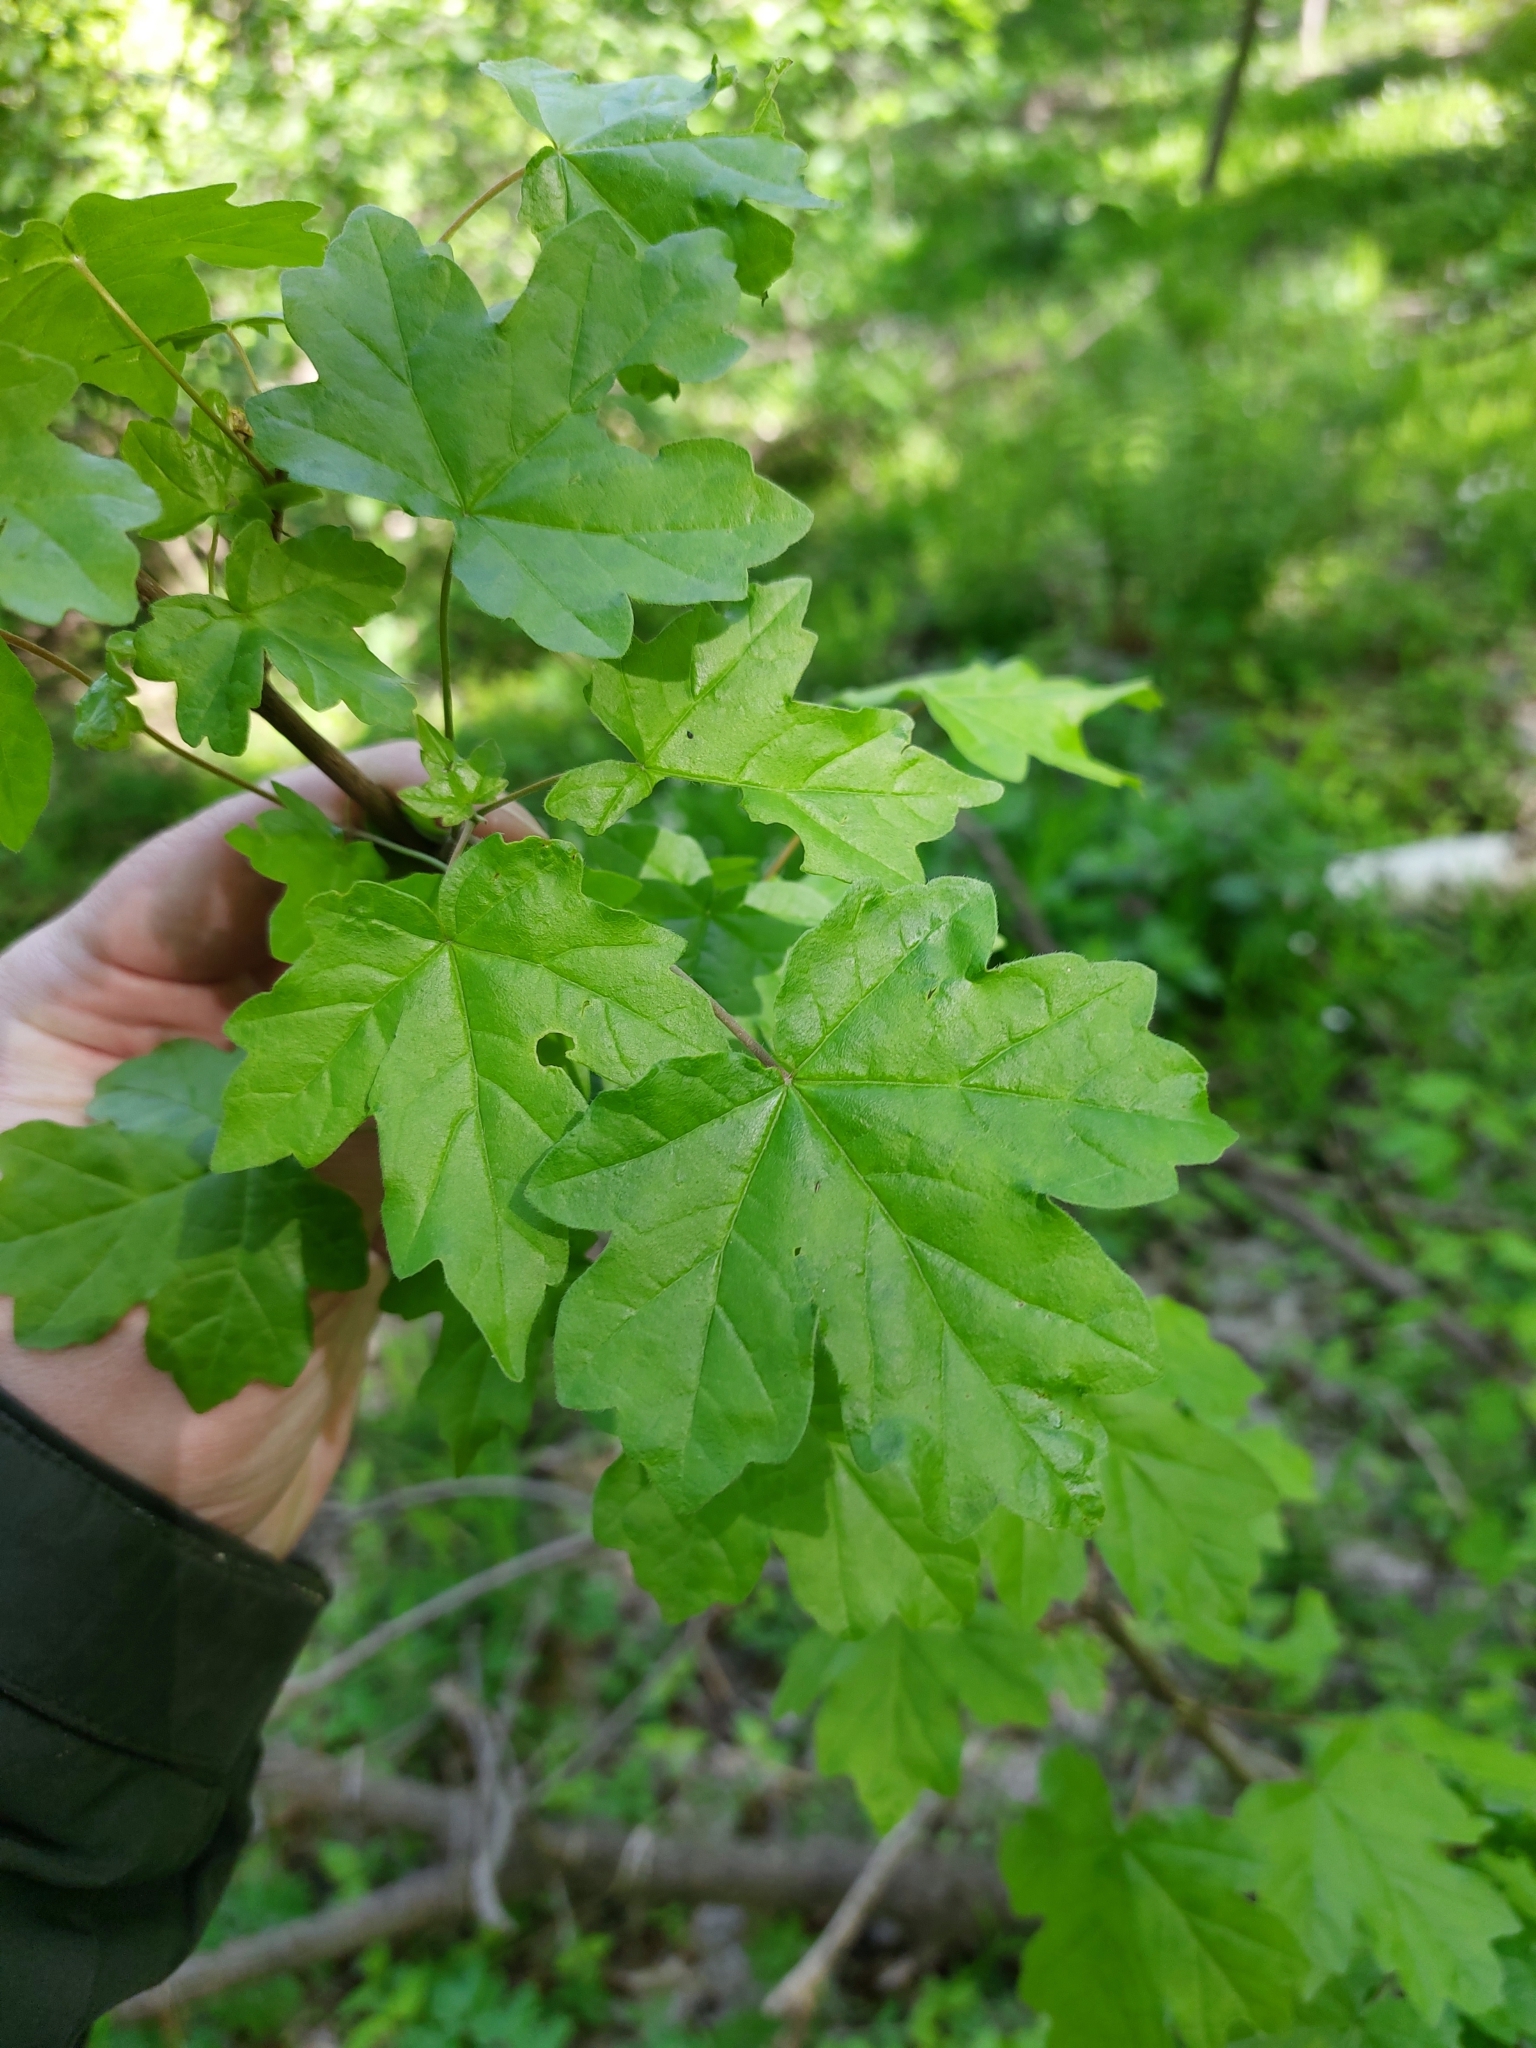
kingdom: Plantae
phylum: Tracheophyta
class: Magnoliopsida
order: Sapindales
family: Sapindaceae
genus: Acer
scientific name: Acer campestre
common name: Field maple
